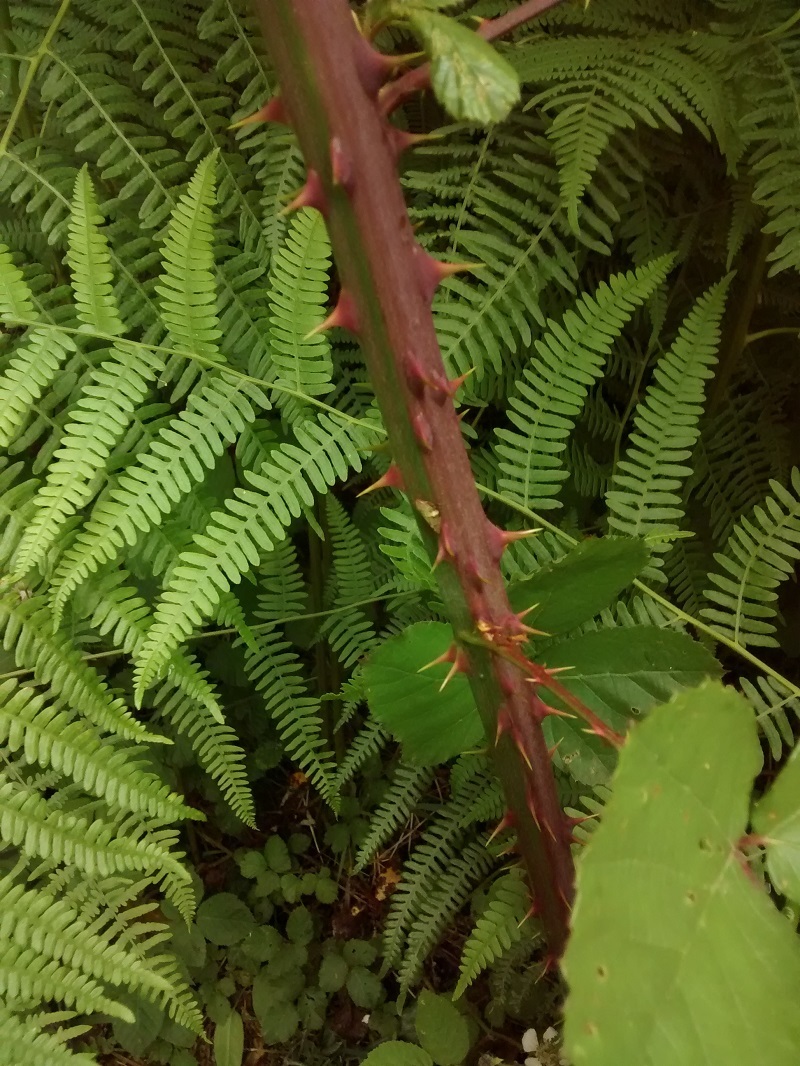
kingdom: Plantae
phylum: Tracheophyta
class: Magnoliopsida
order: Rosales
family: Rosaceae
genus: Rubus
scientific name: Rubus ulmifolius
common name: Elmleaf blackberry
